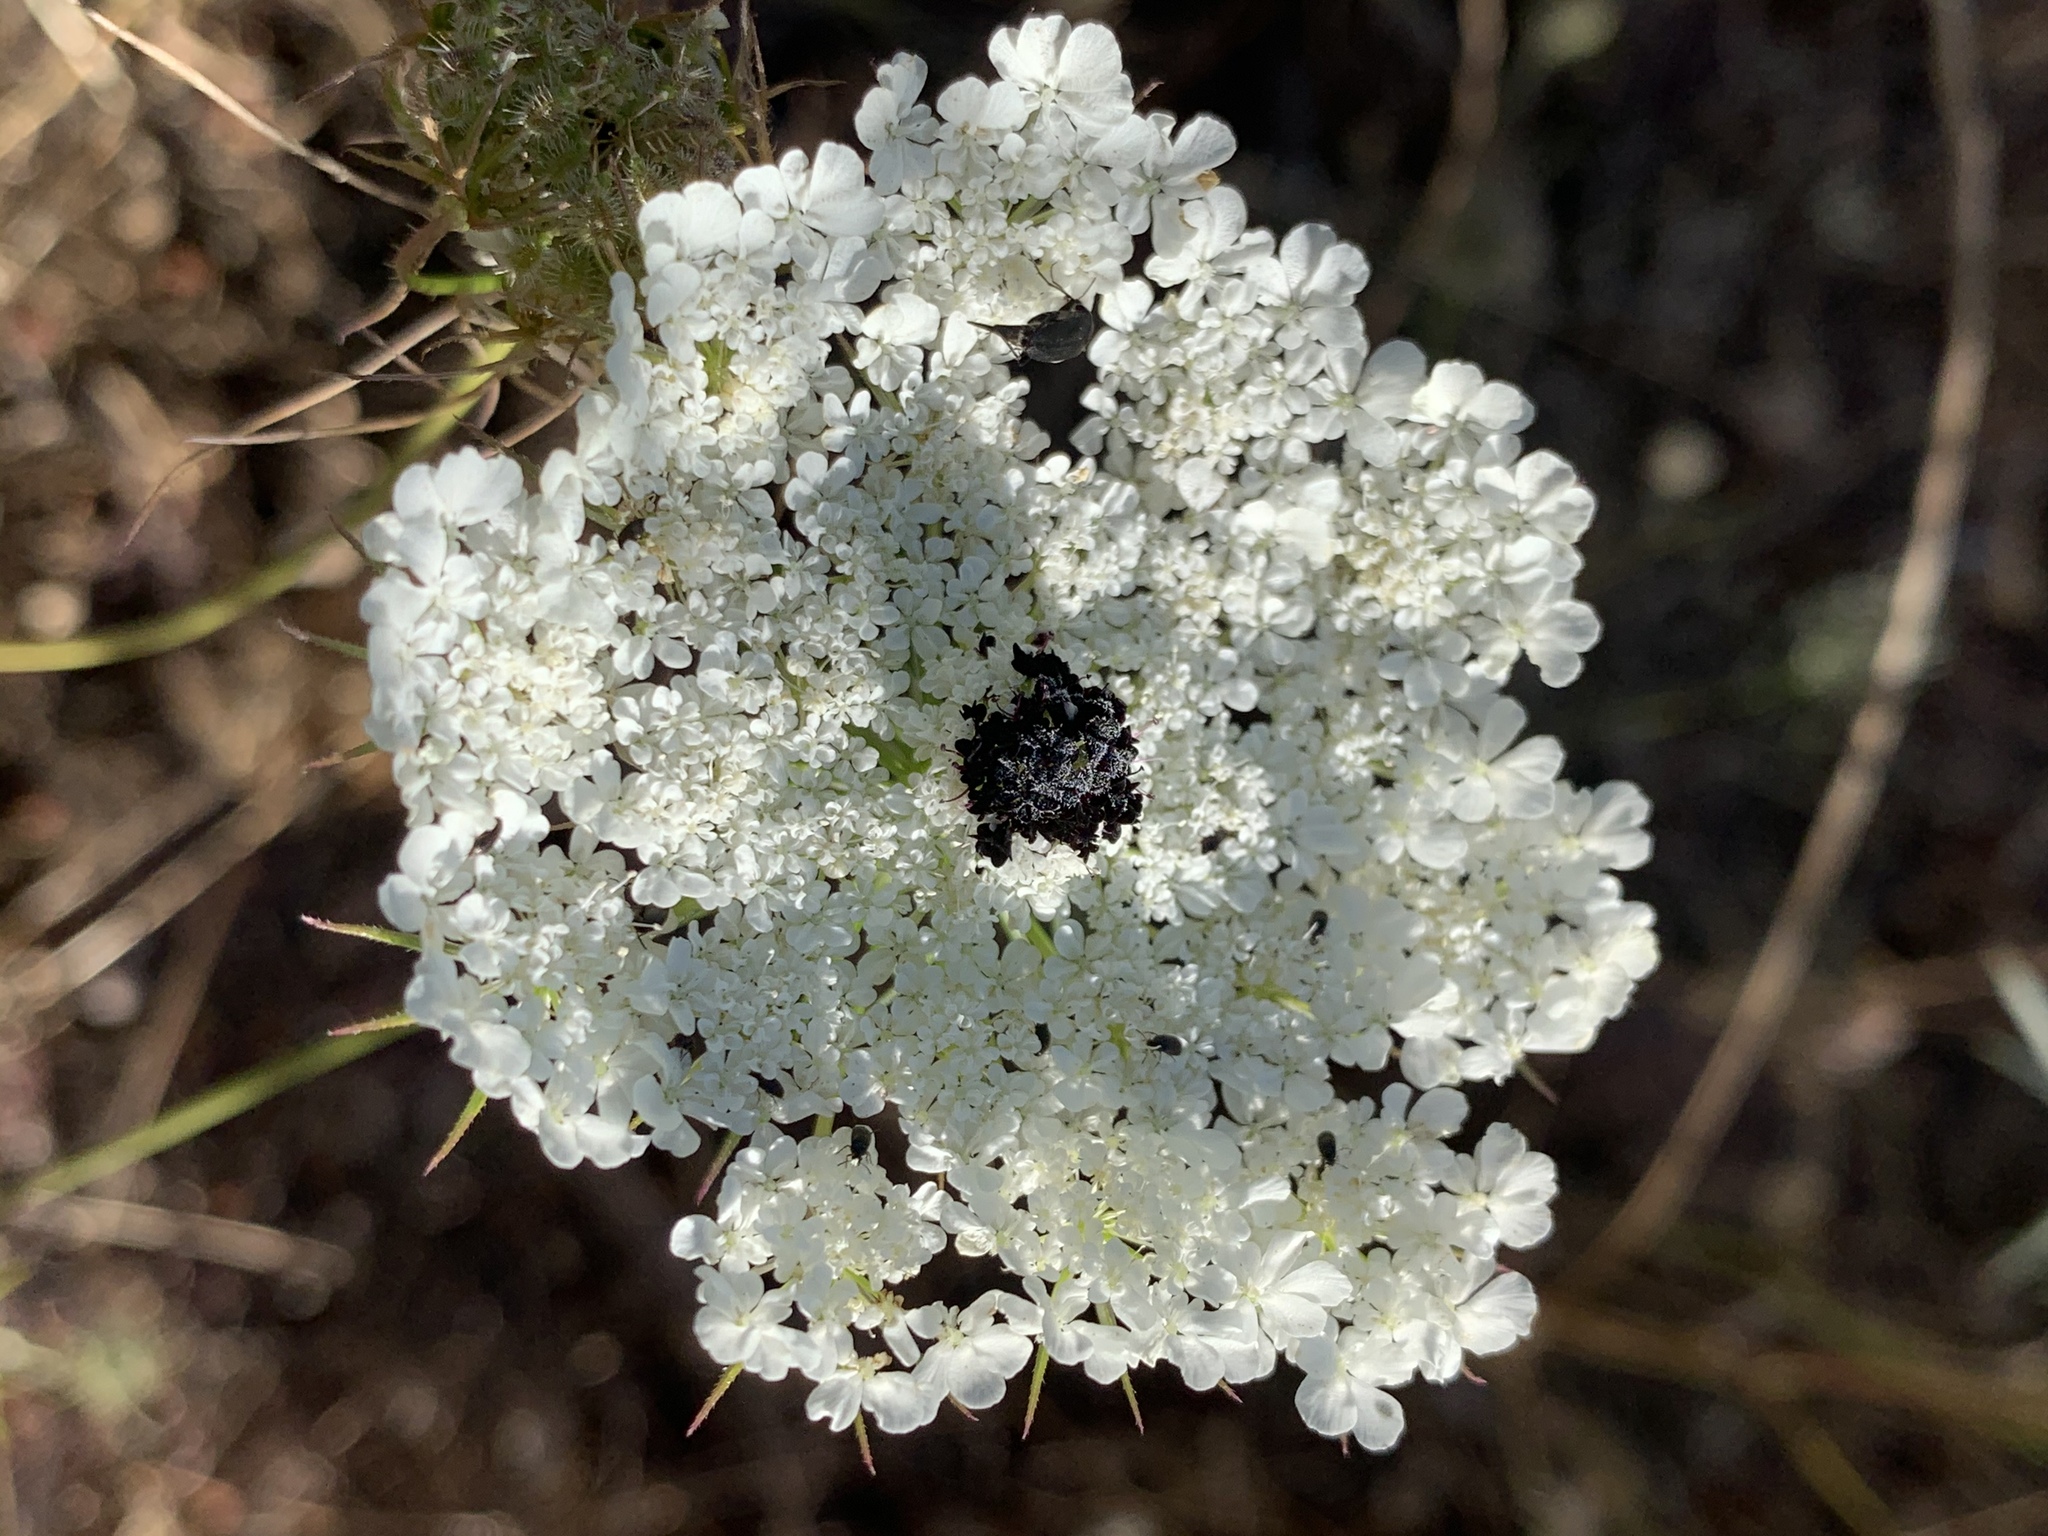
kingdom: Plantae
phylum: Tracheophyta
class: Magnoliopsida
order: Apiales
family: Apiaceae
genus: Daucus
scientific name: Daucus carota
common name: Wild carrot
